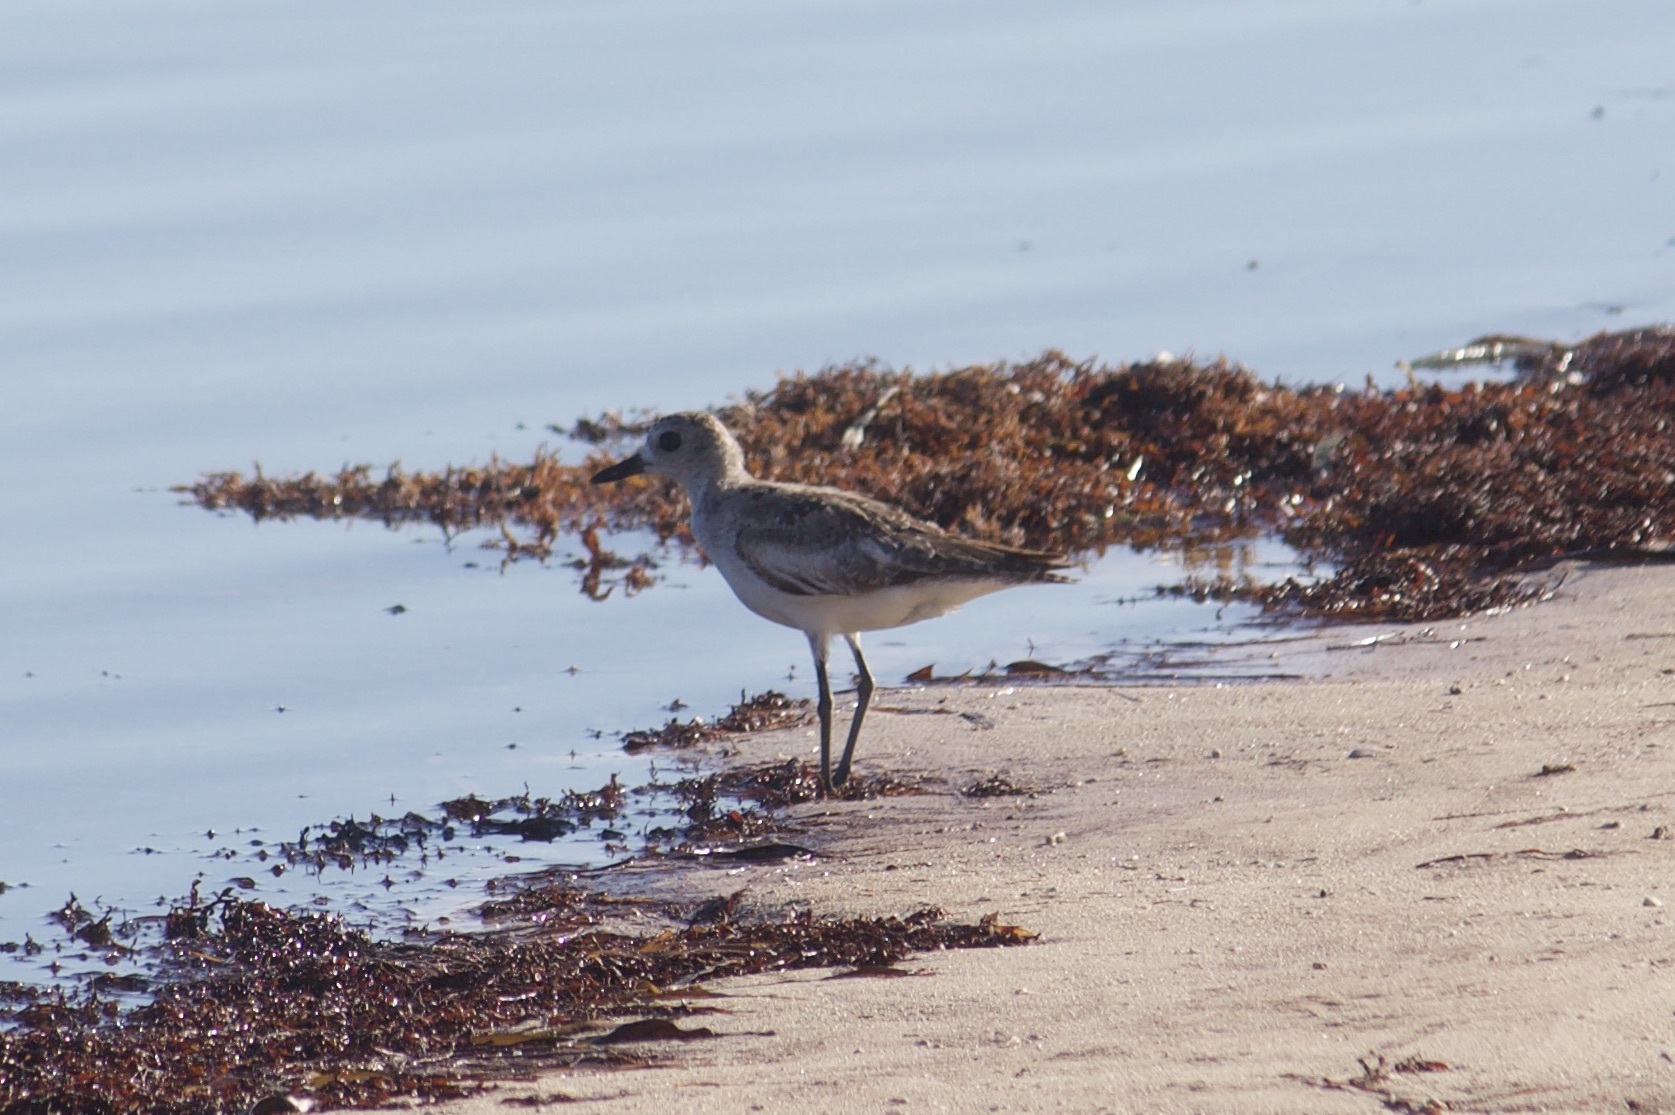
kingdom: Animalia
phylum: Chordata
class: Aves
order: Charadriiformes
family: Charadriidae
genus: Pluvialis
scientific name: Pluvialis squatarola
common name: Grey plover
